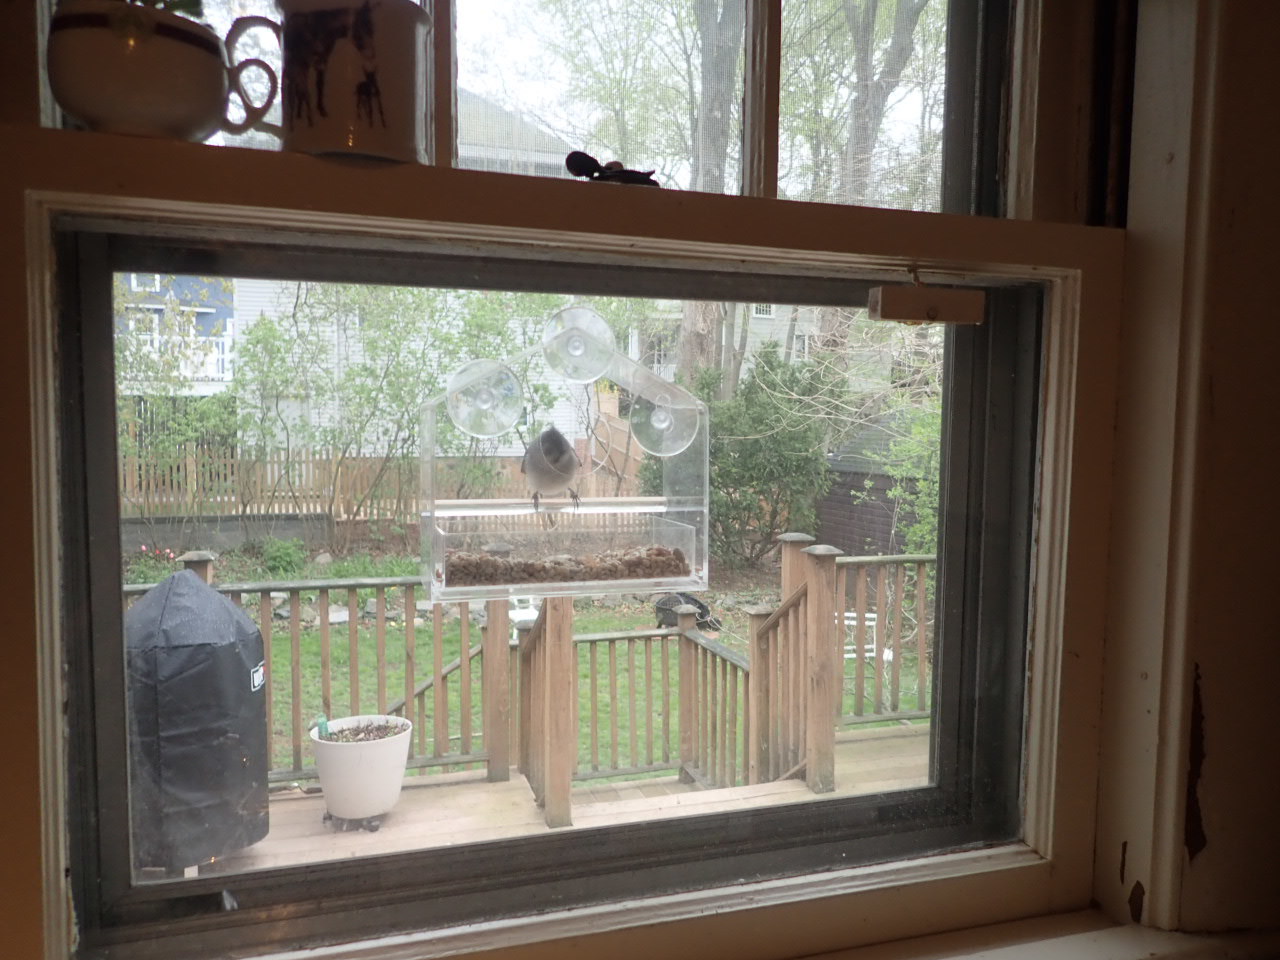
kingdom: Animalia
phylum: Chordata
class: Aves
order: Passeriformes
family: Paridae
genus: Baeolophus
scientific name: Baeolophus bicolor
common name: Tufted titmouse
